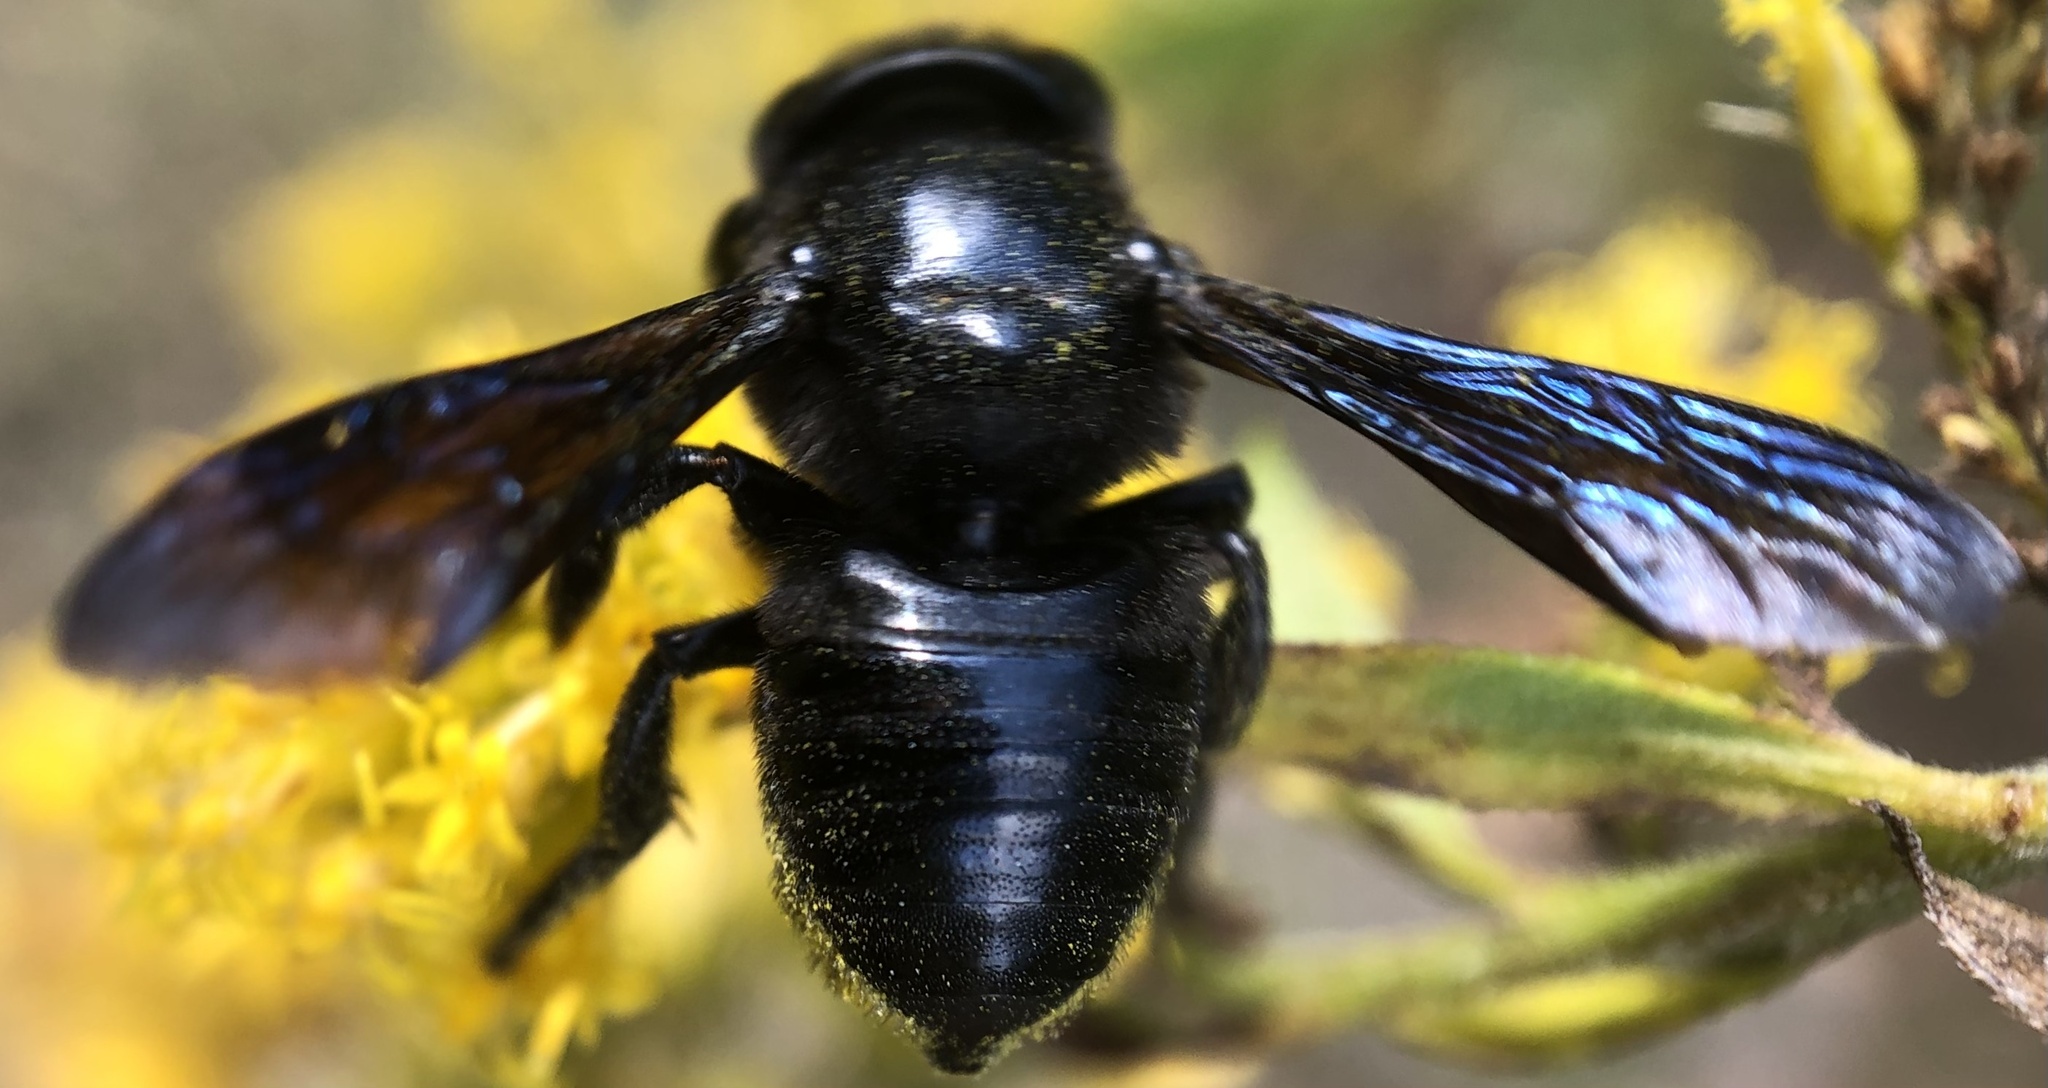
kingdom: Animalia
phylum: Arthropoda
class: Insecta
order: Hymenoptera
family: Megachilidae
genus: Megachile
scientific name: Megachile xylocopoides
